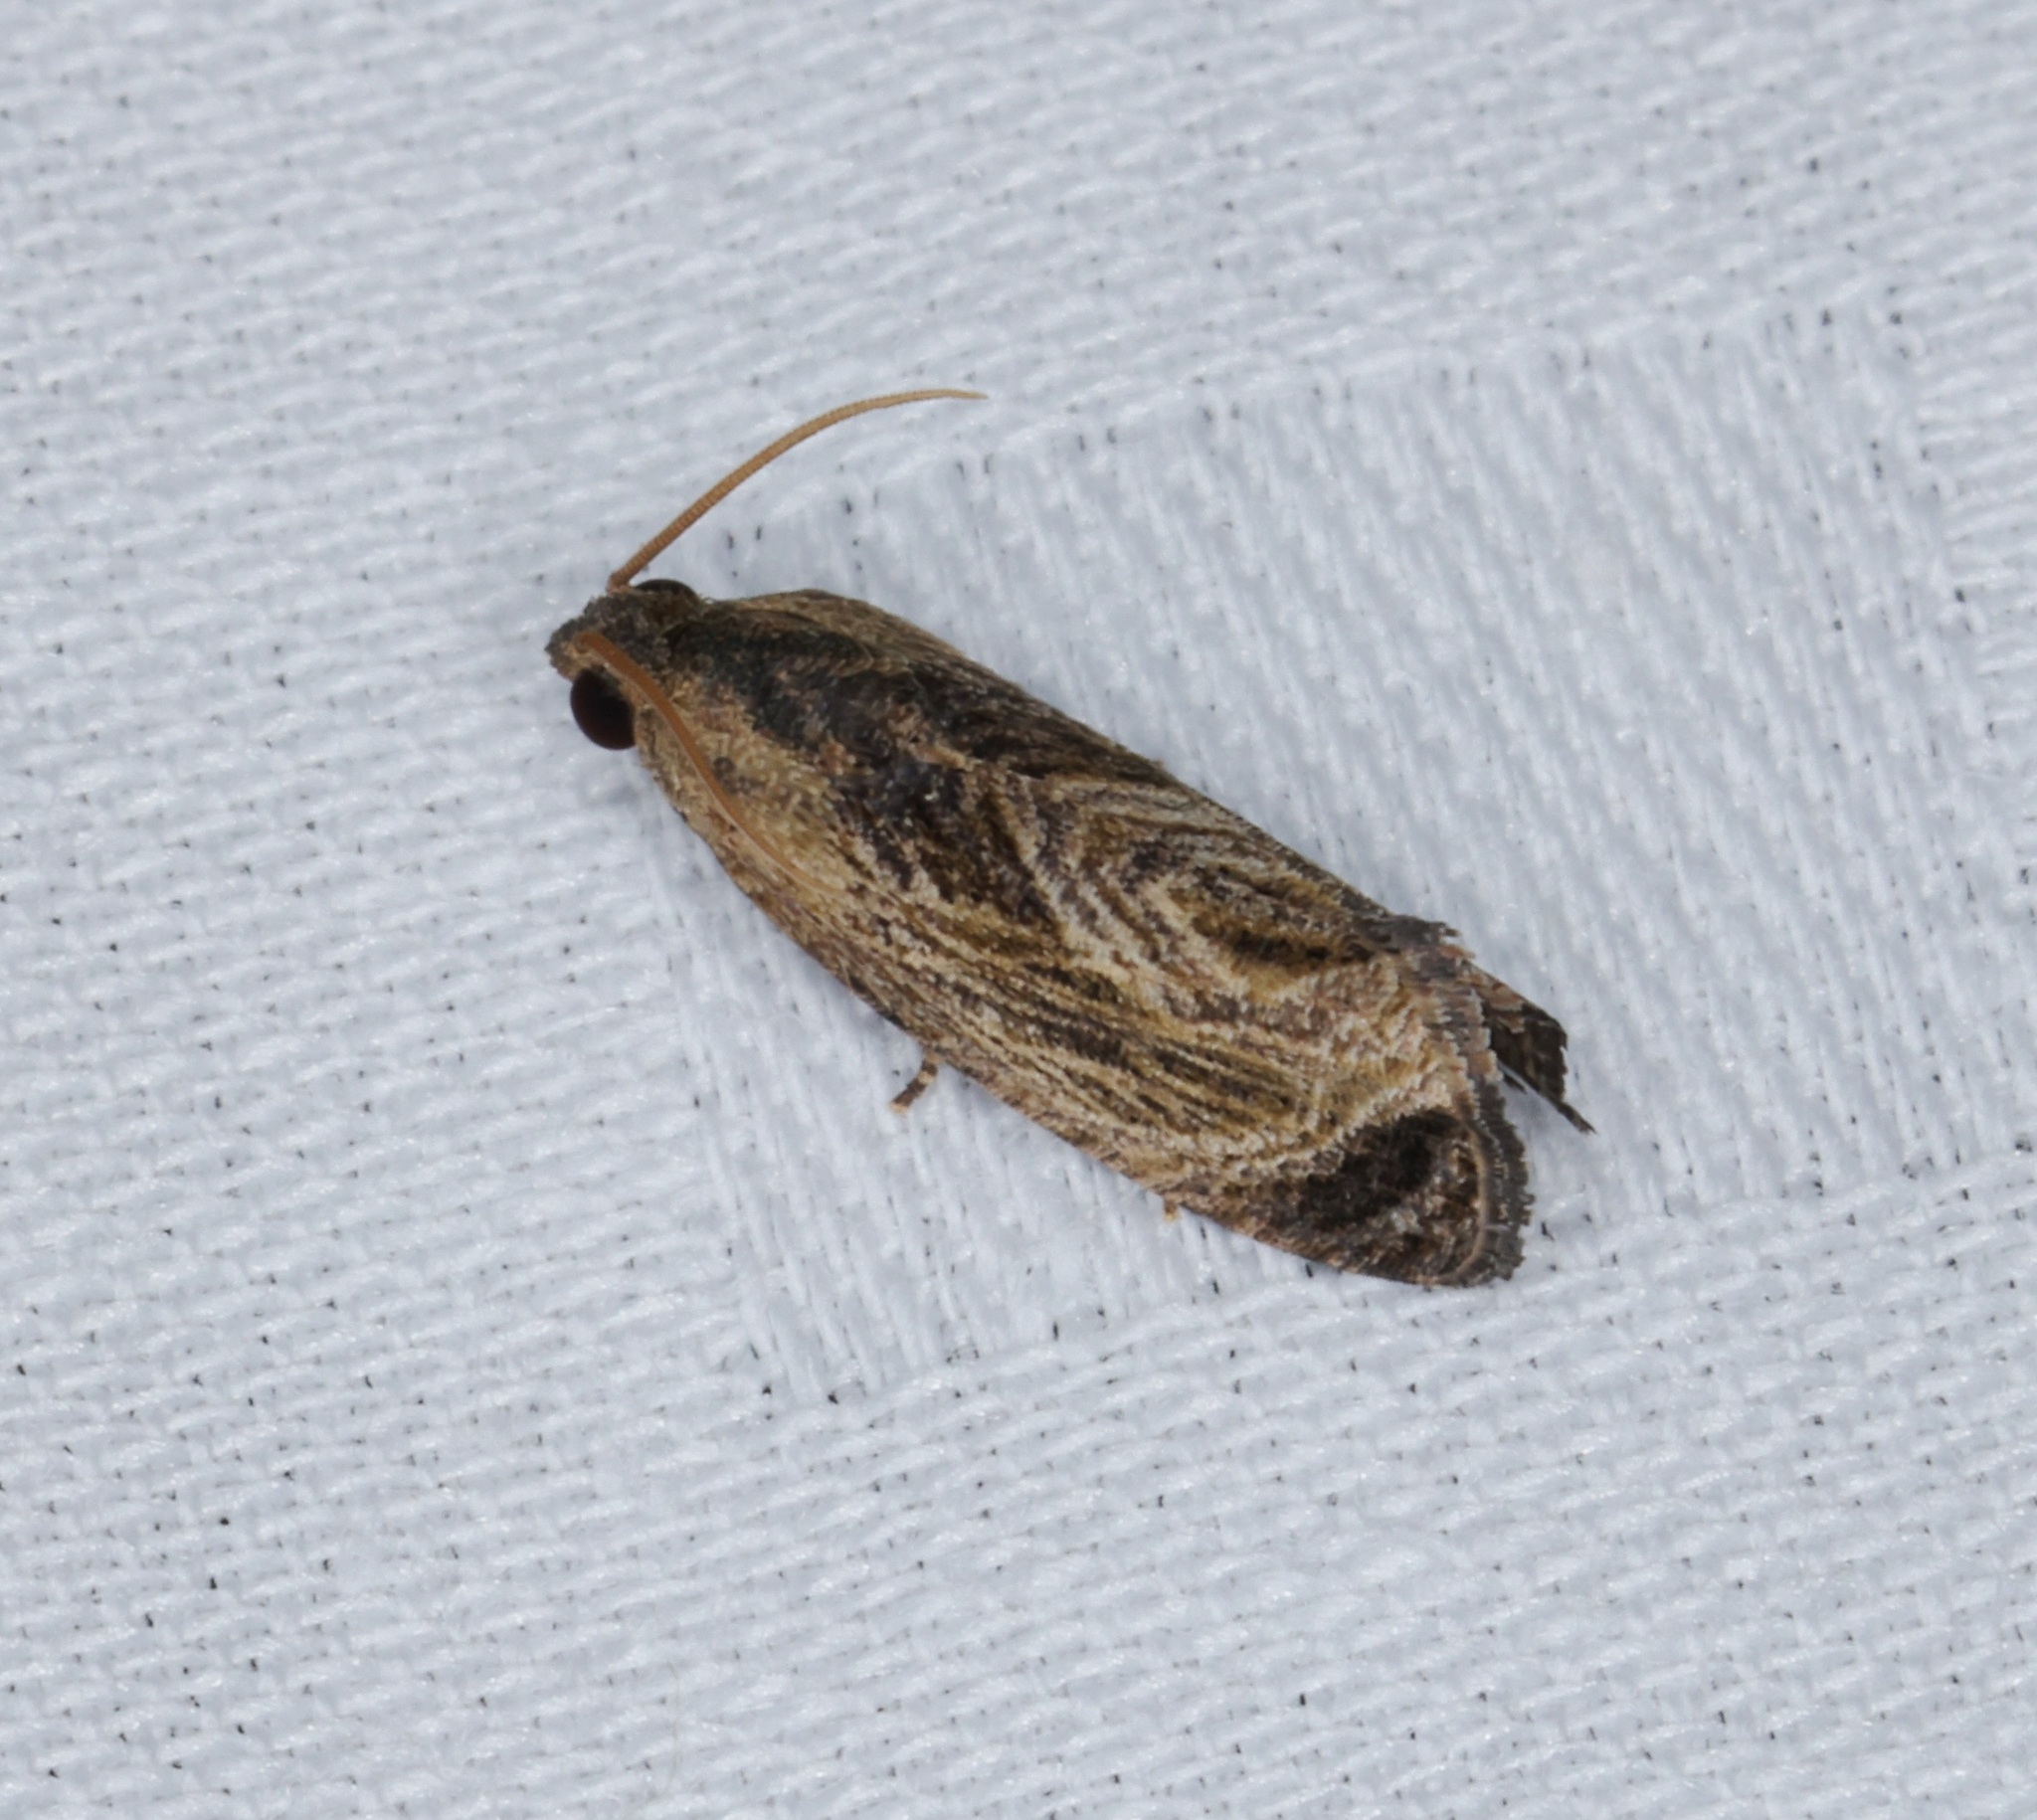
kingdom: Animalia
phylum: Arthropoda
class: Insecta
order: Lepidoptera
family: Tortricidae
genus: Cryptophlebia
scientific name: Cryptophlebia repletana
